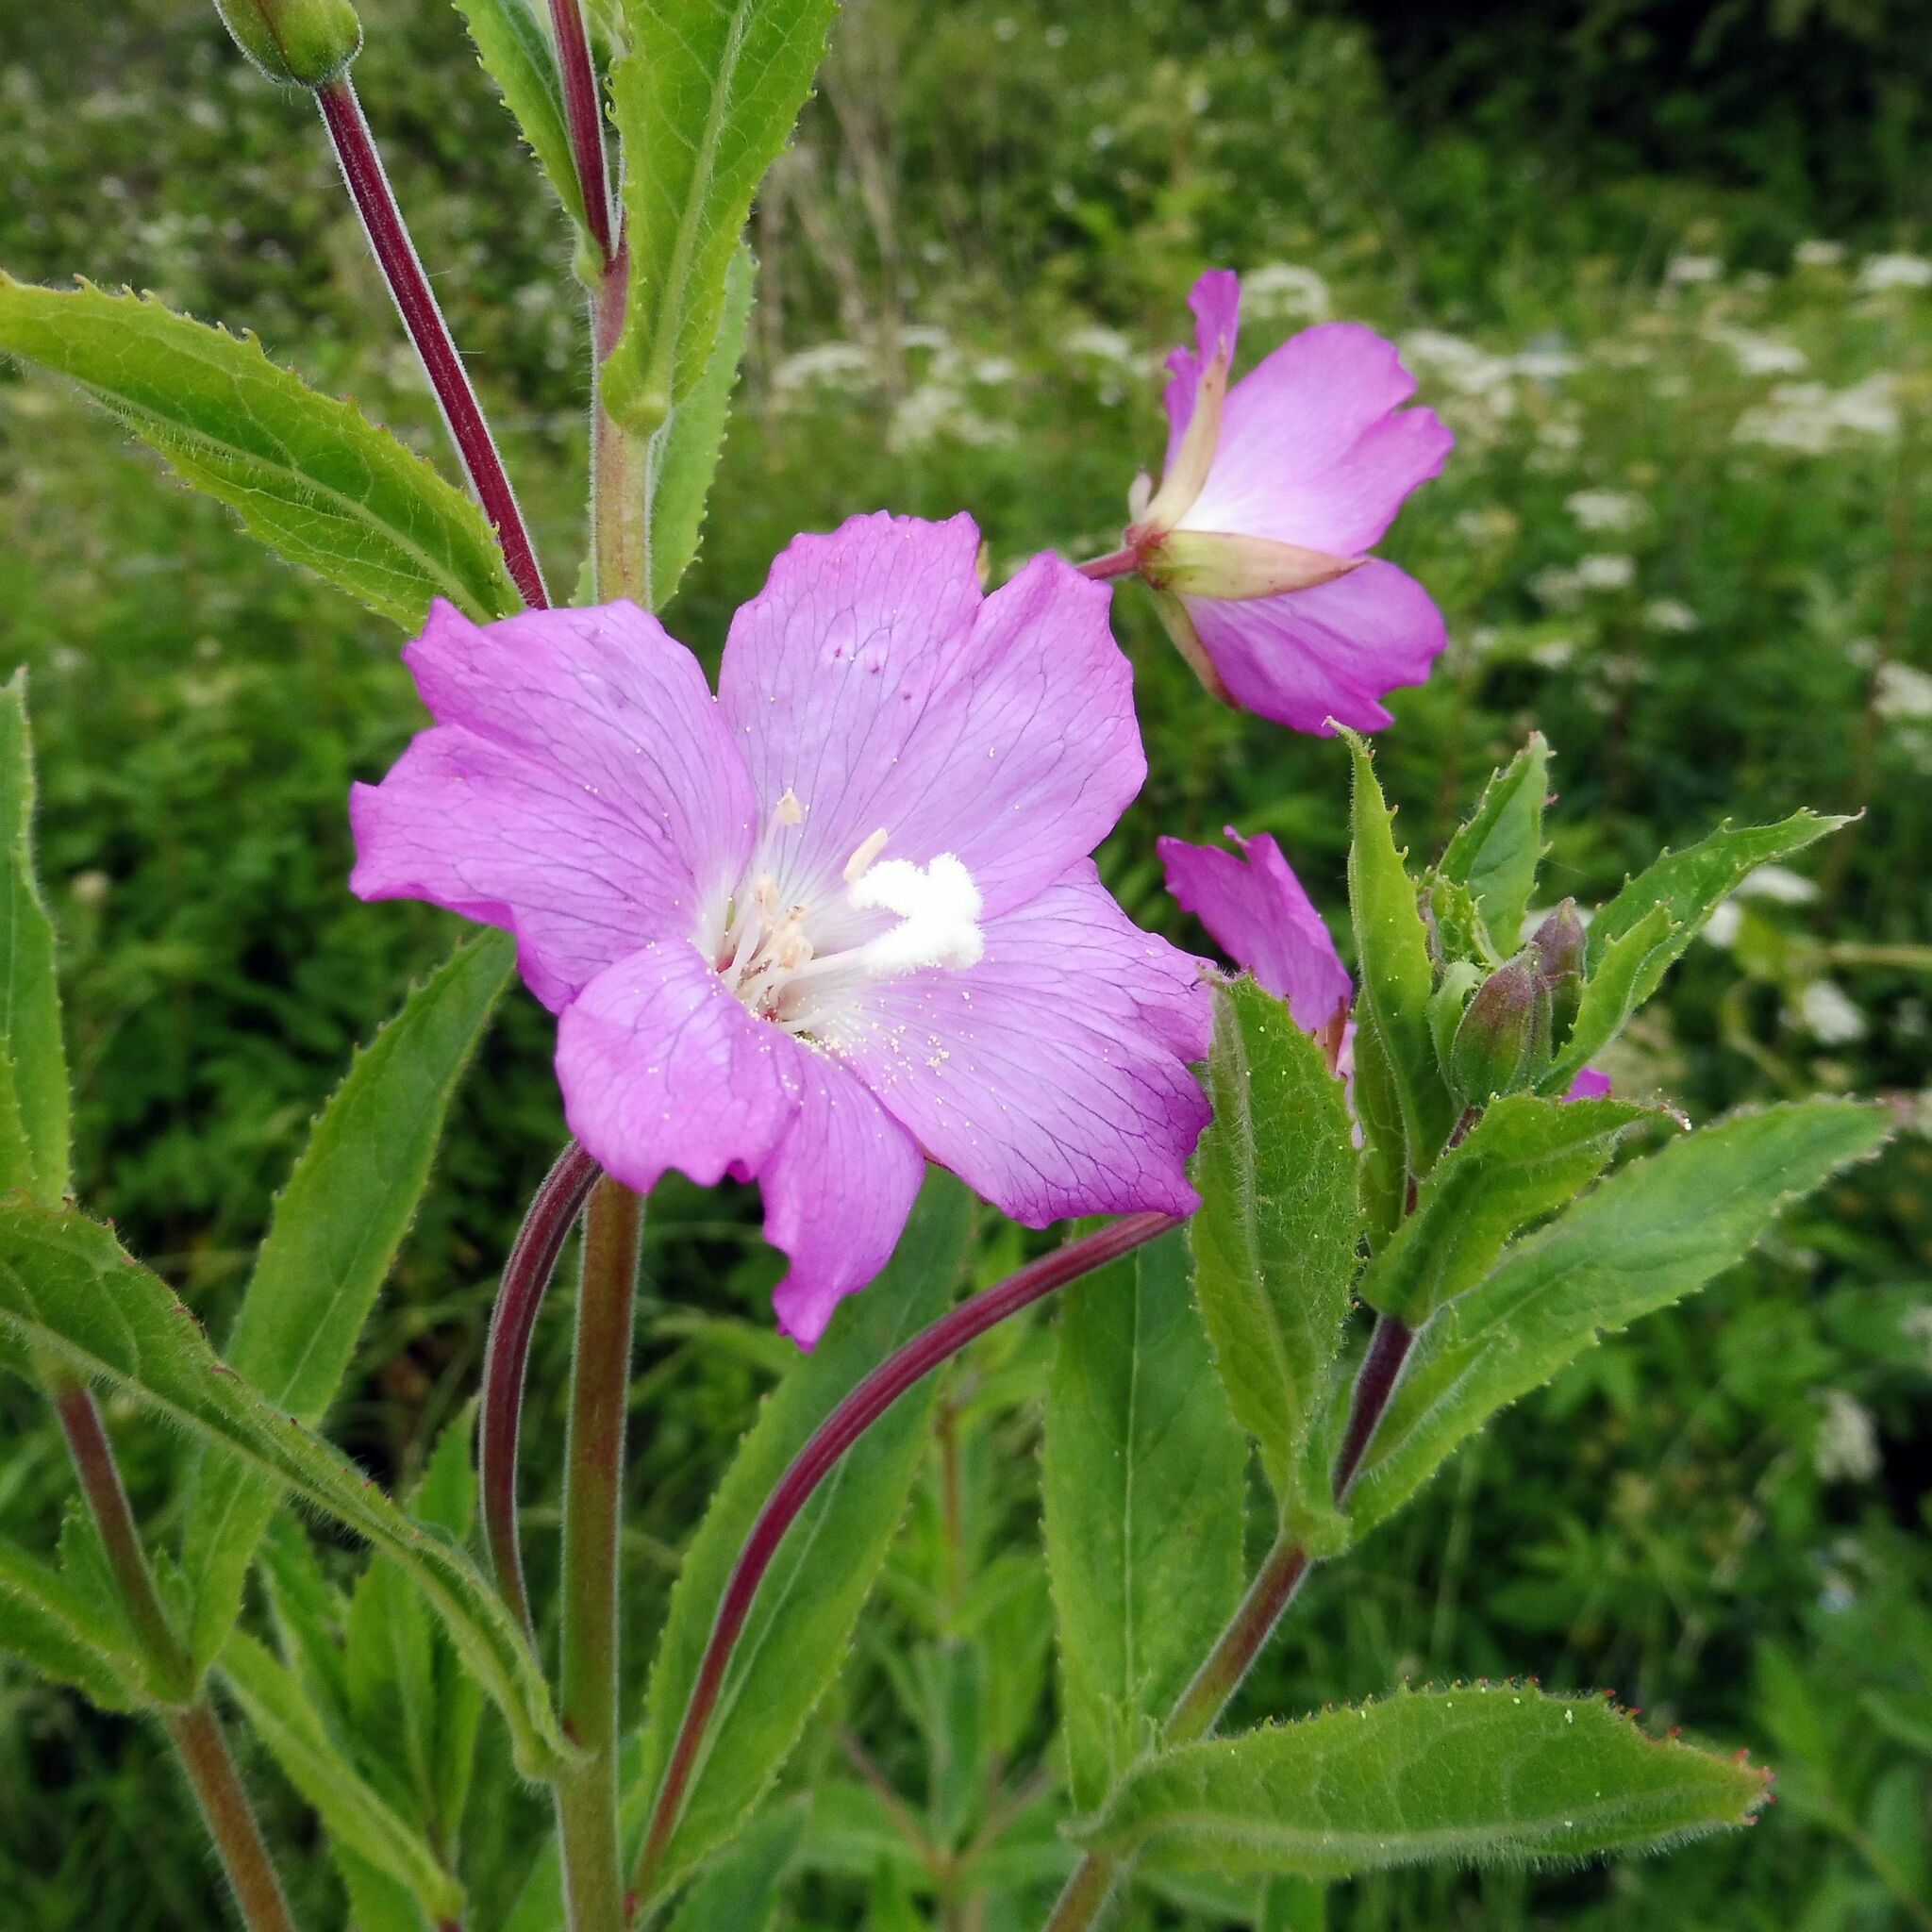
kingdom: Plantae
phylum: Tracheophyta
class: Magnoliopsida
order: Myrtales
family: Onagraceae
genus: Epilobium
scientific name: Epilobium hirsutum
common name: Great willowherb
